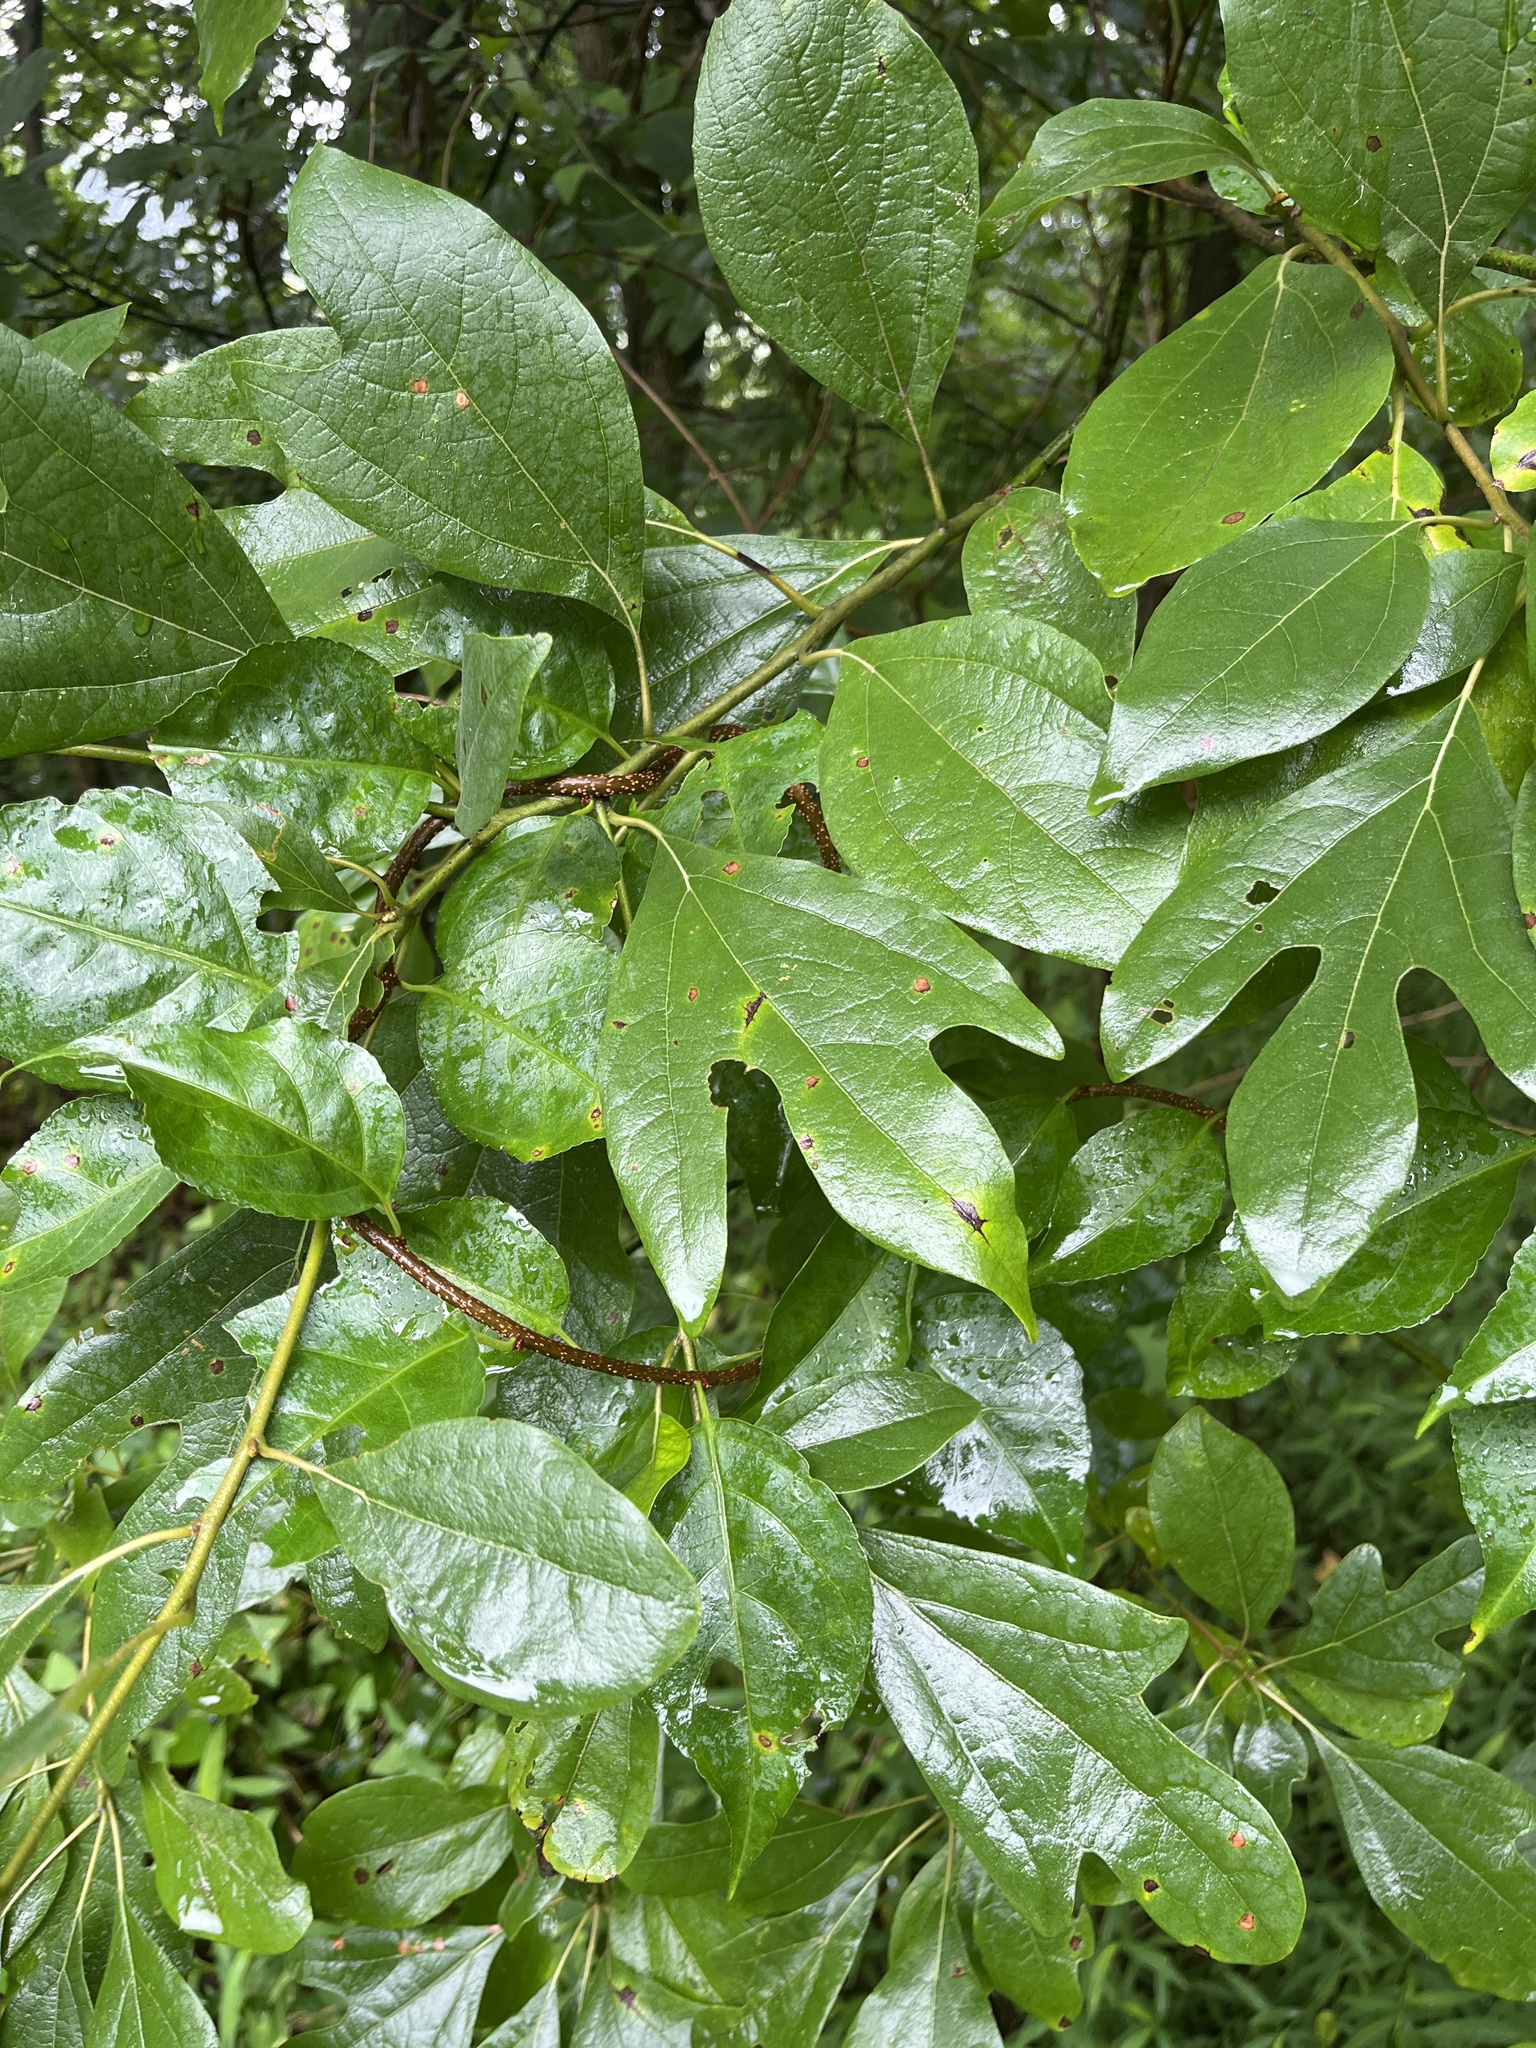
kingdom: Plantae
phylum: Tracheophyta
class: Magnoliopsida
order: Laurales
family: Lauraceae
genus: Sassafras
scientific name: Sassafras albidum
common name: Sassafras
